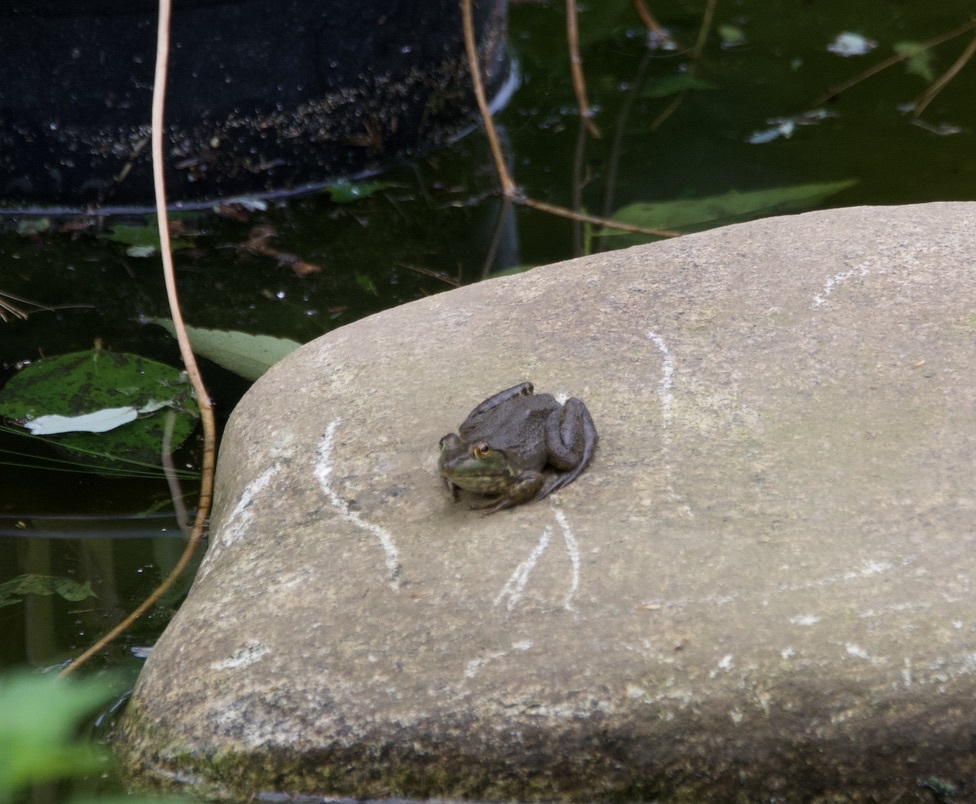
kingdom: Animalia
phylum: Chordata
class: Amphibia
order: Anura
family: Ranidae
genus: Lithobates
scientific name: Lithobates catesbeianus
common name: American bullfrog
